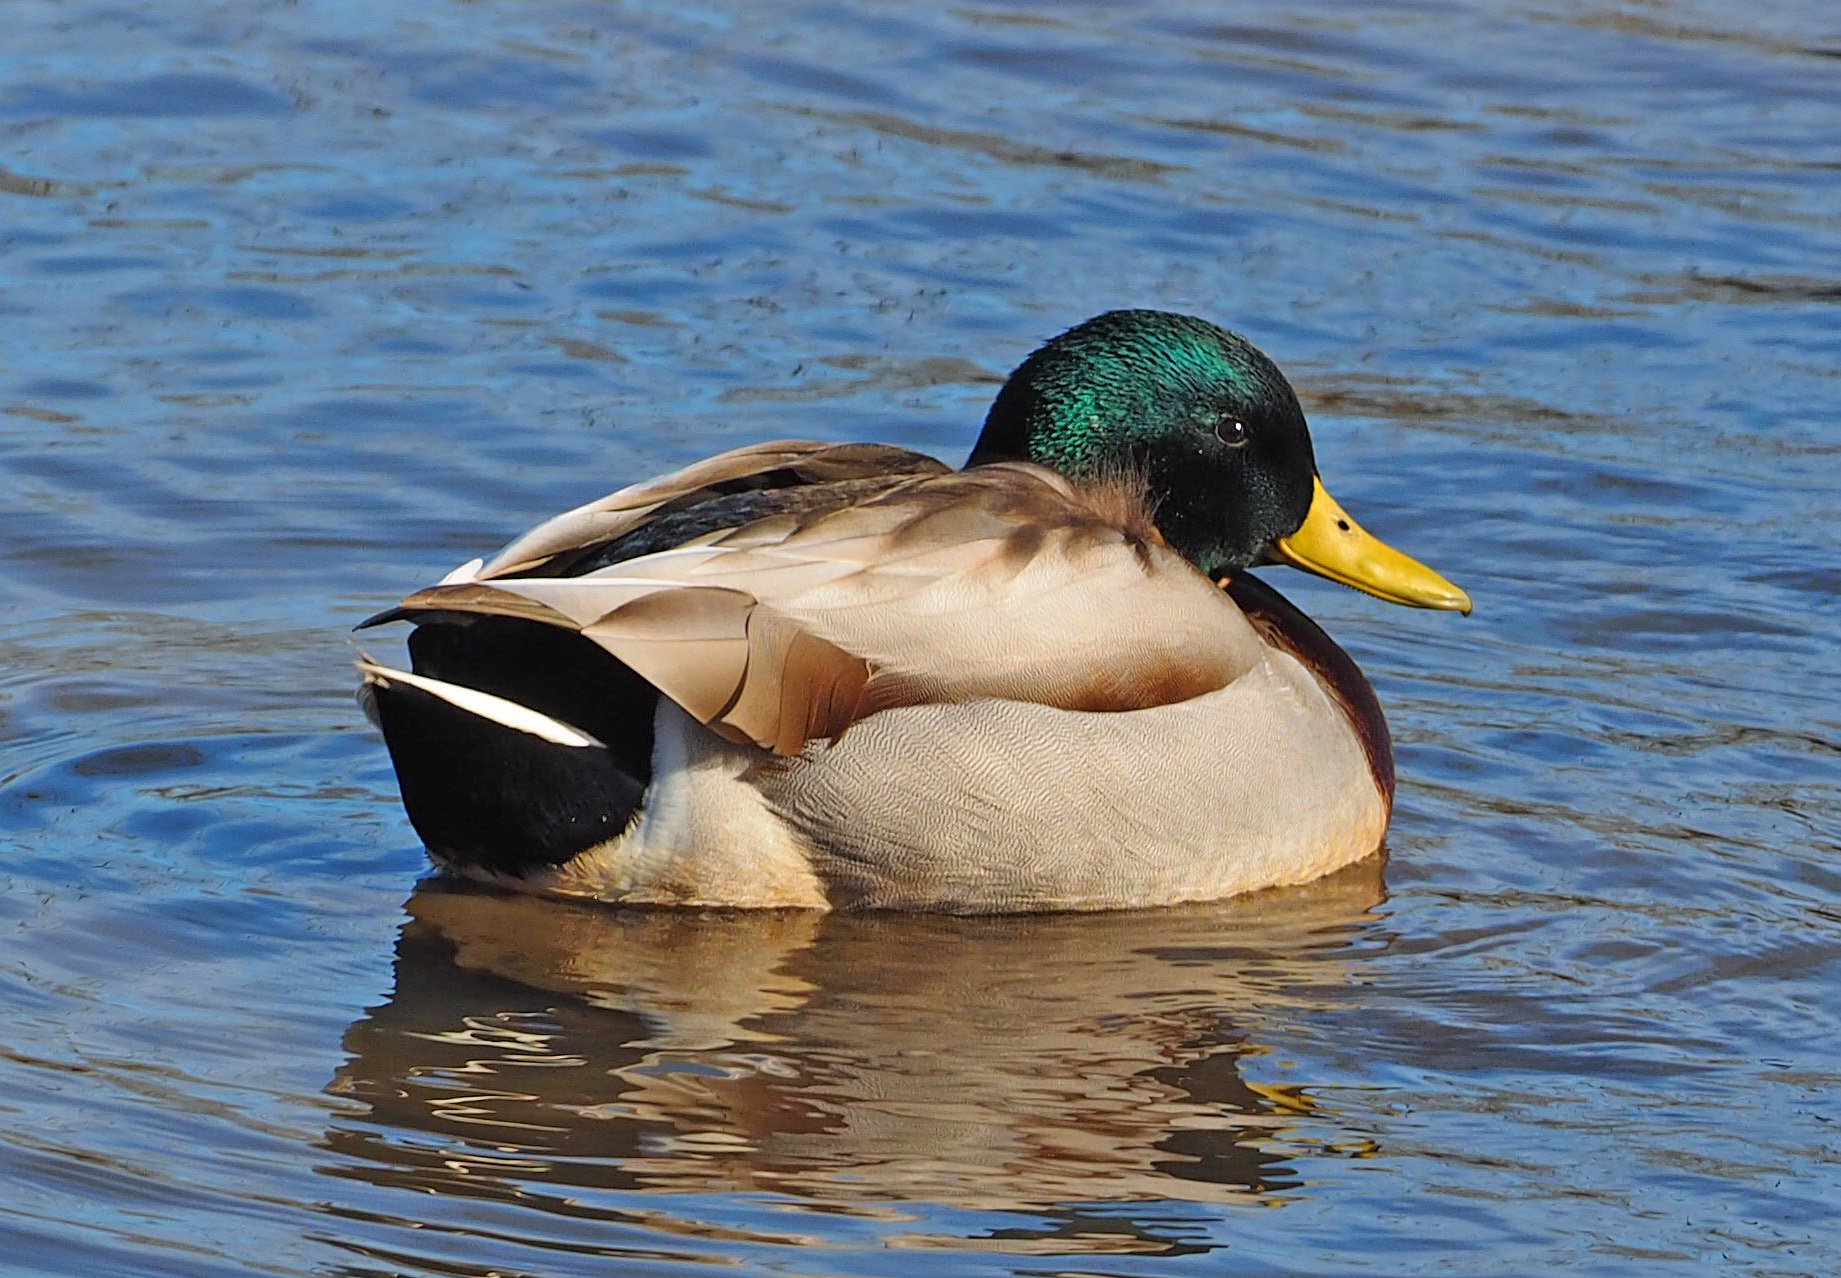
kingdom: Animalia
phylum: Chordata
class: Aves
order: Anseriformes
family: Anatidae
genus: Anas
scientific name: Anas platyrhynchos
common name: Mallard
